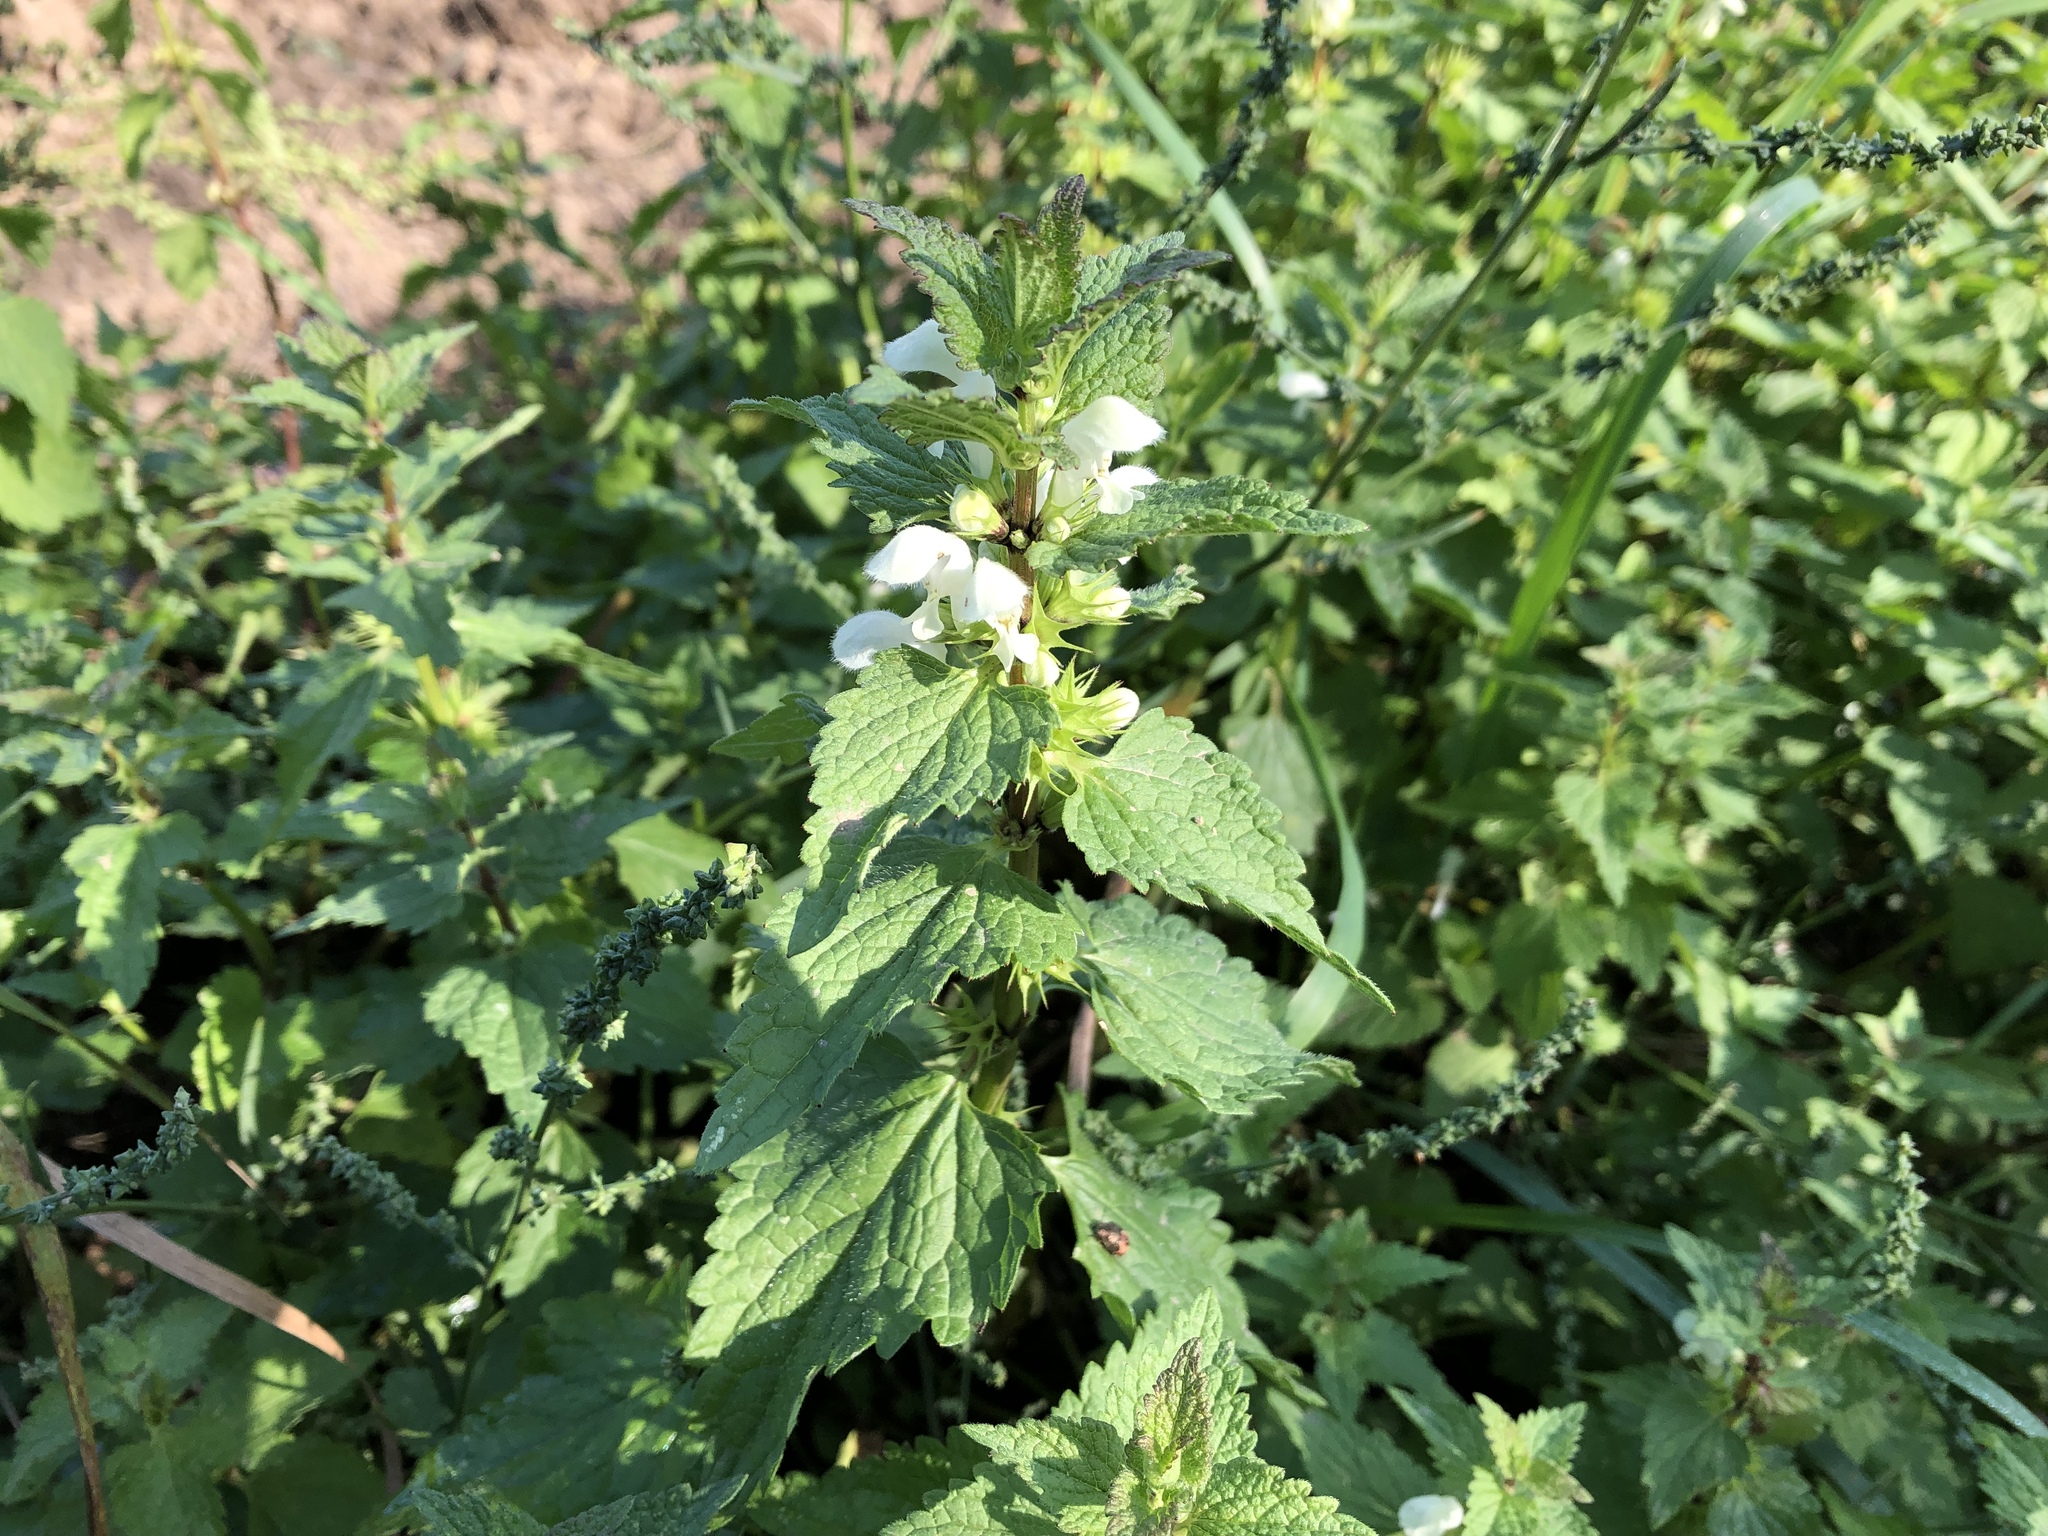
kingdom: Plantae
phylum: Tracheophyta
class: Magnoliopsida
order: Lamiales
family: Lamiaceae
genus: Lamium
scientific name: Lamium album
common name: White dead-nettle
